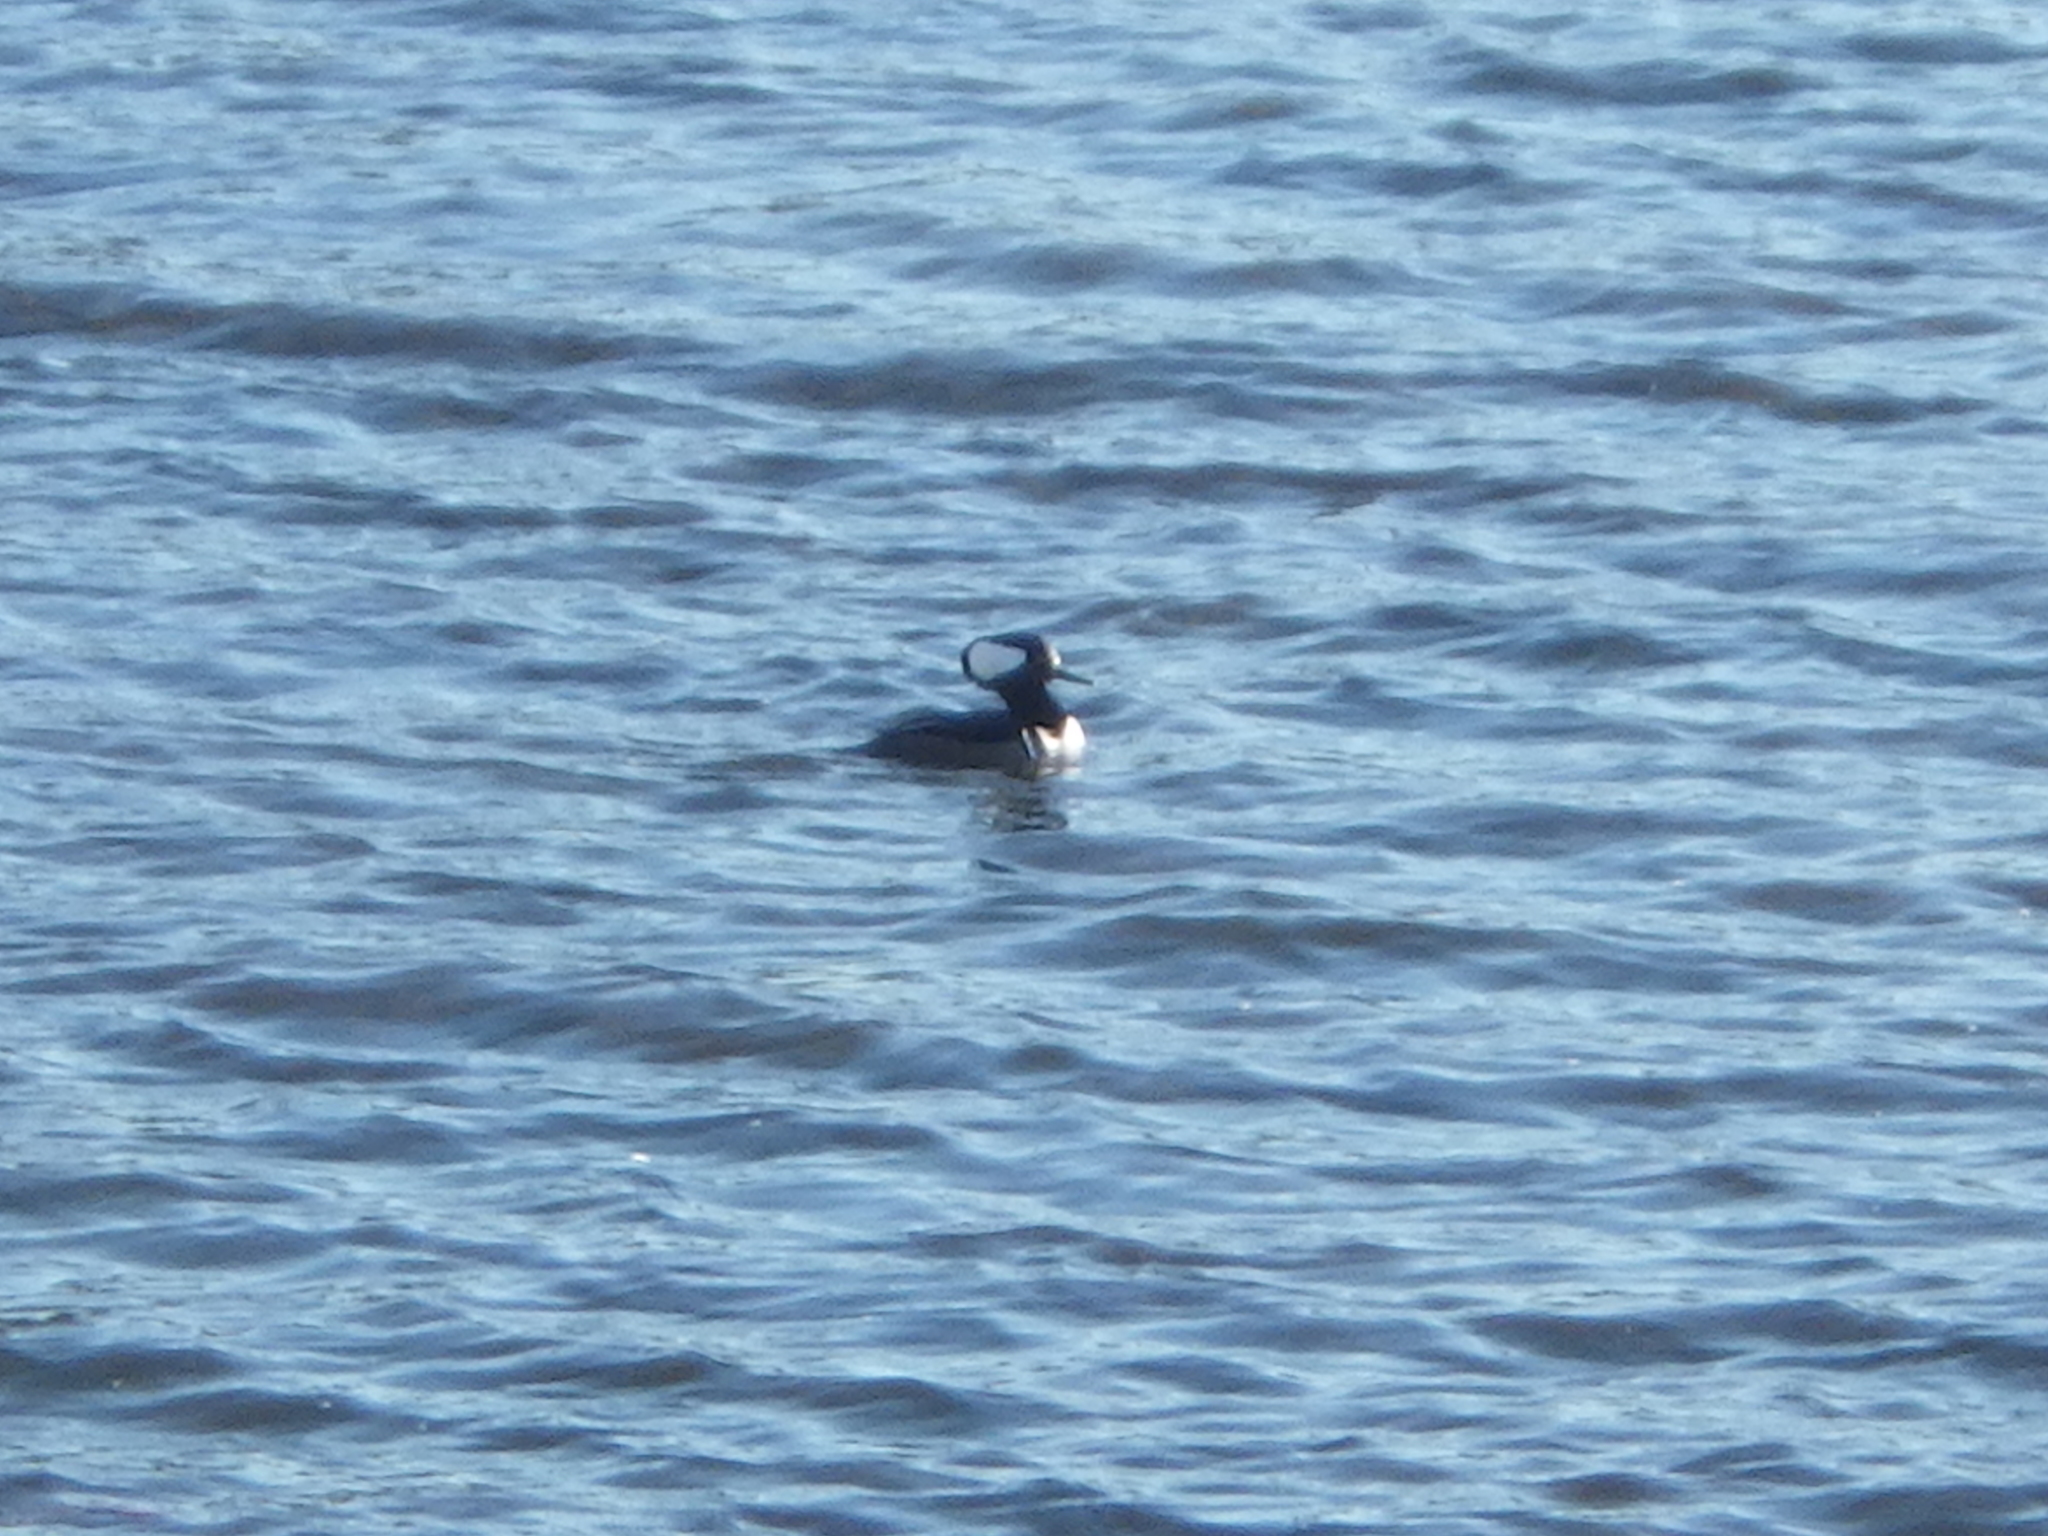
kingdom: Animalia
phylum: Chordata
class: Aves
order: Anseriformes
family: Anatidae
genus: Lophodytes
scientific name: Lophodytes cucullatus
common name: Hooded merganser
